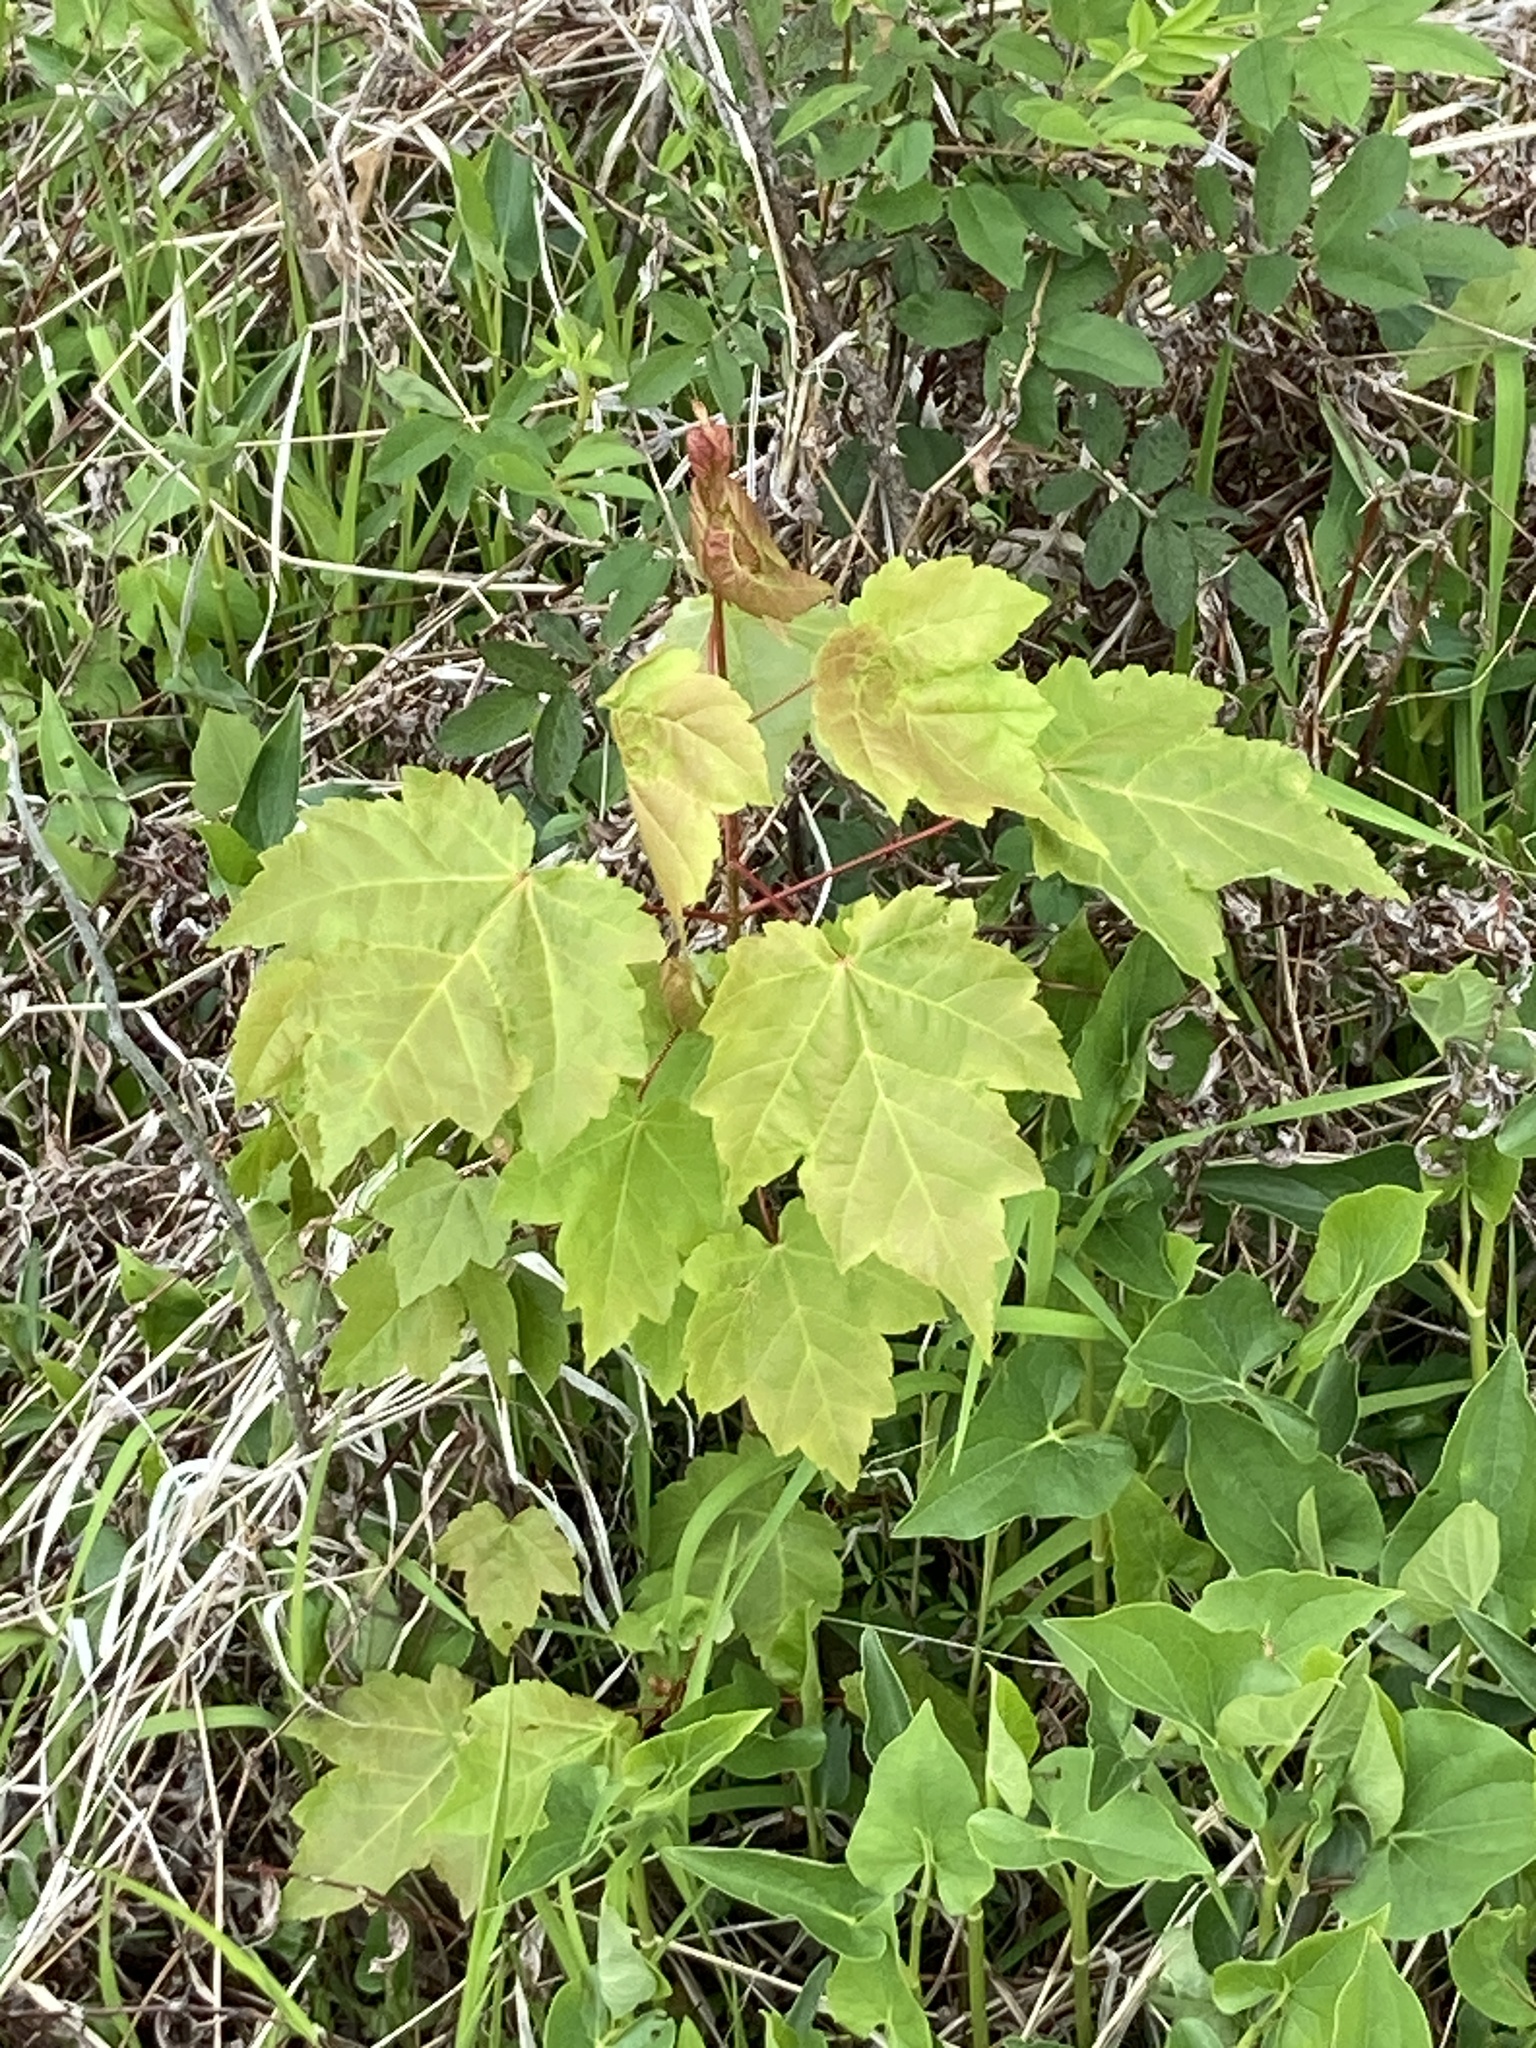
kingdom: Plantae
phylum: Tracheophyta
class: Magnoliopsida
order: Sapindales
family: Sapindaceae
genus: Acer
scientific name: Acer rubrum
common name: Red maple
